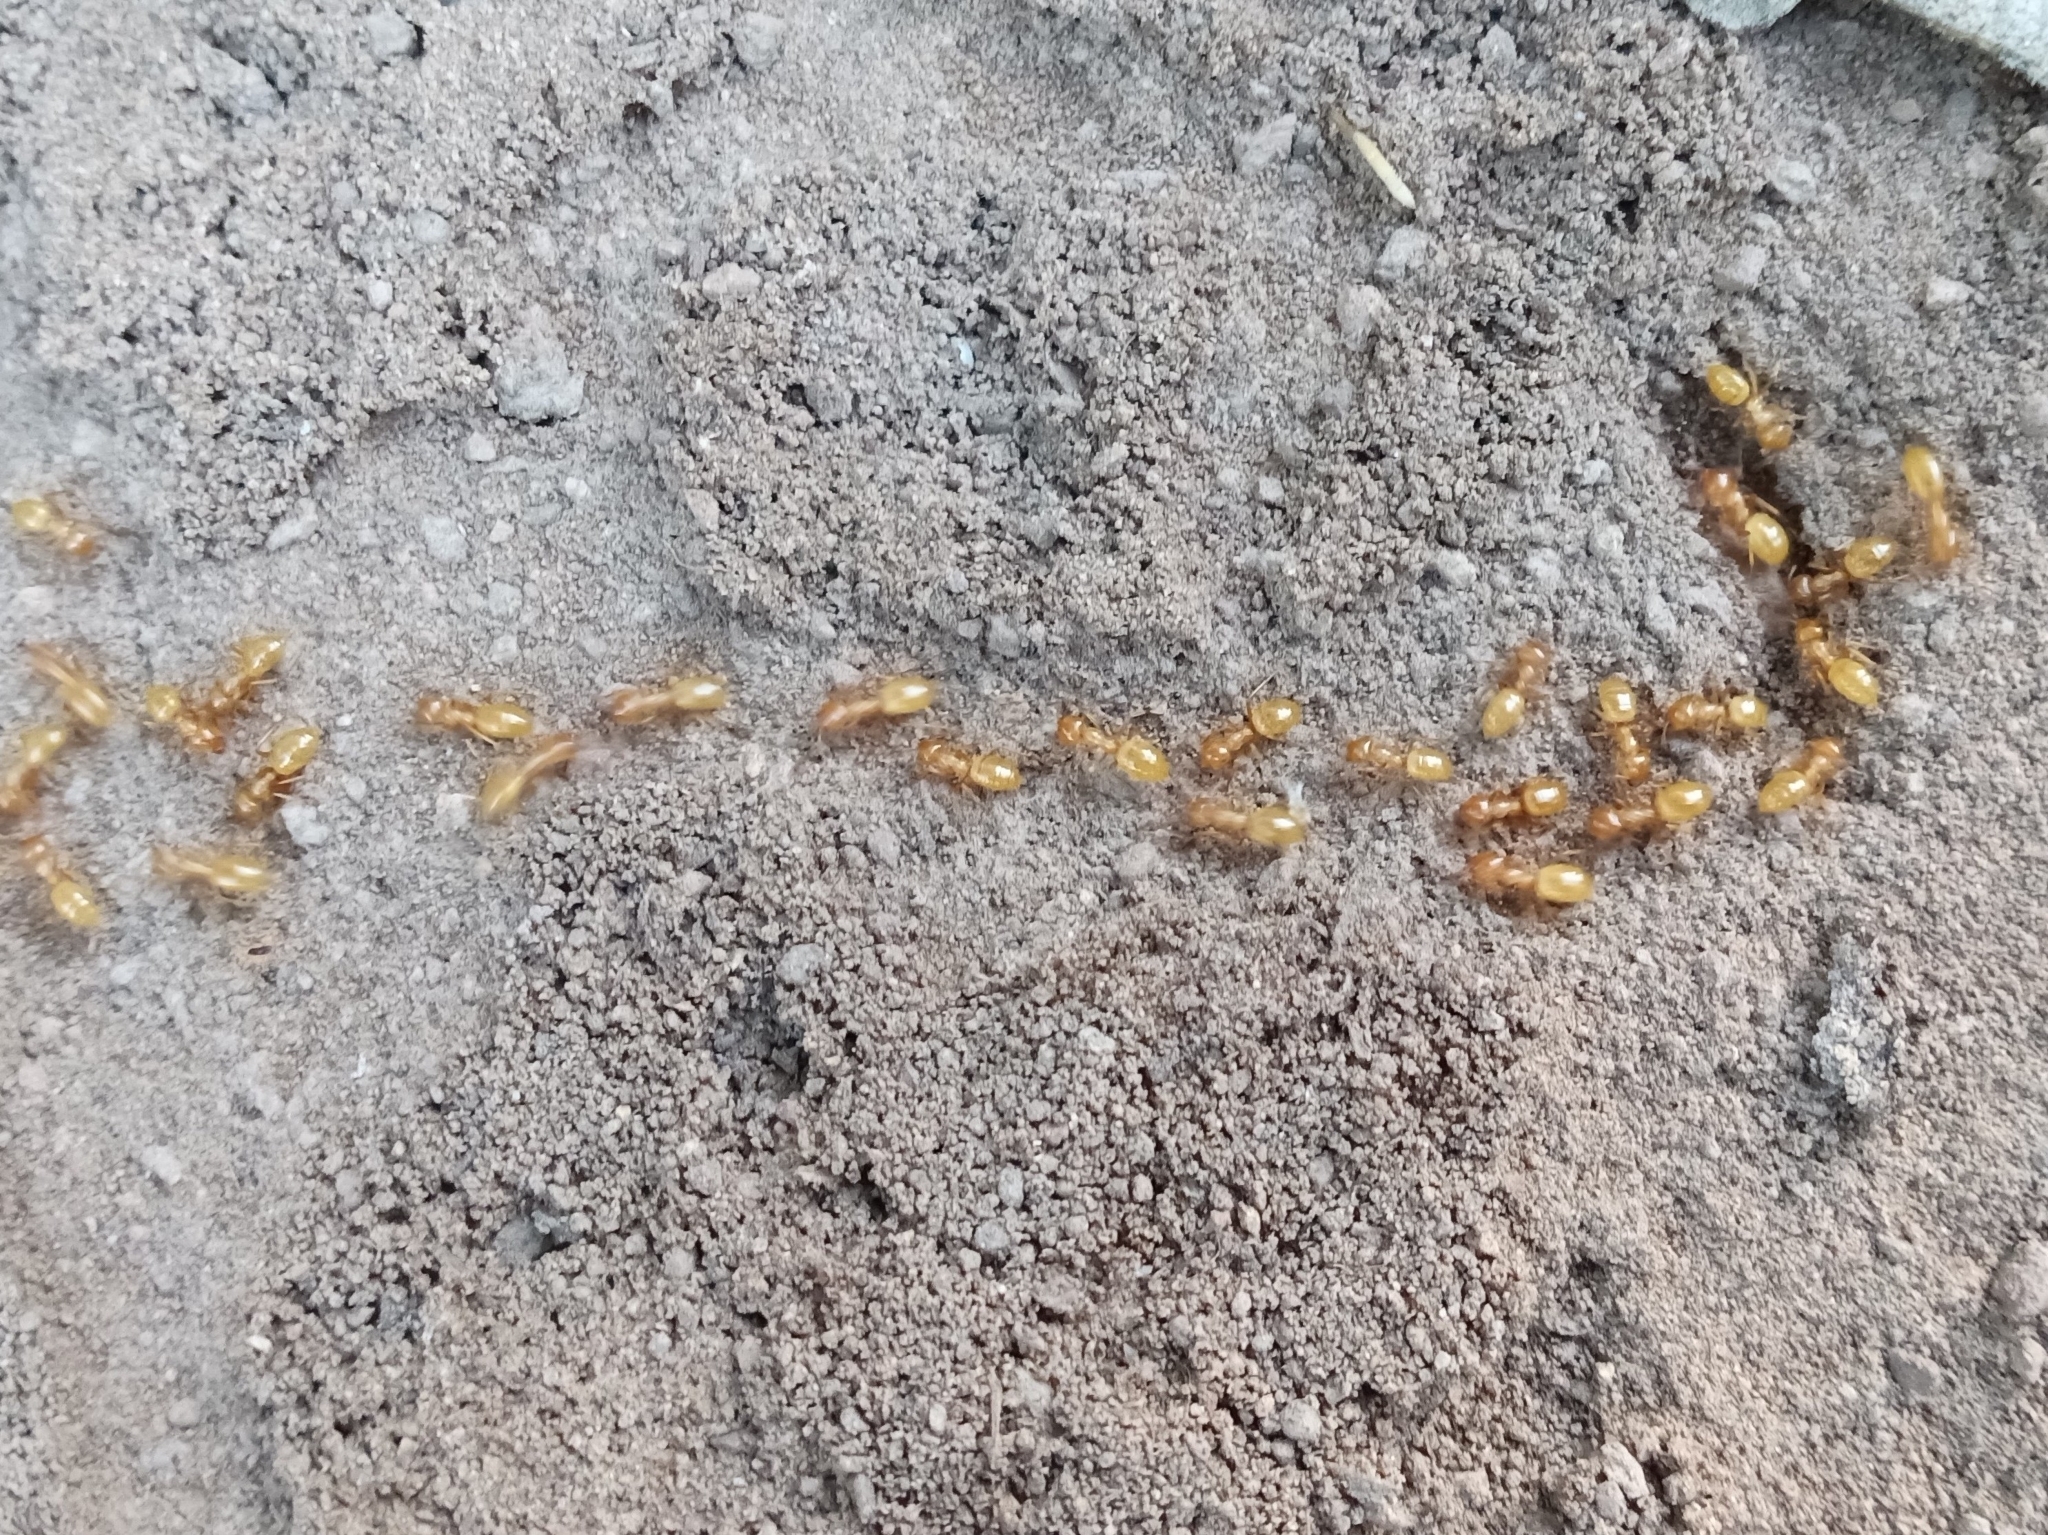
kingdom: Animalia
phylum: Arthropoda
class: Insecta
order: Hymenoptera
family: Formicidae
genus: Lasius
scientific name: Lasius arizonicus
